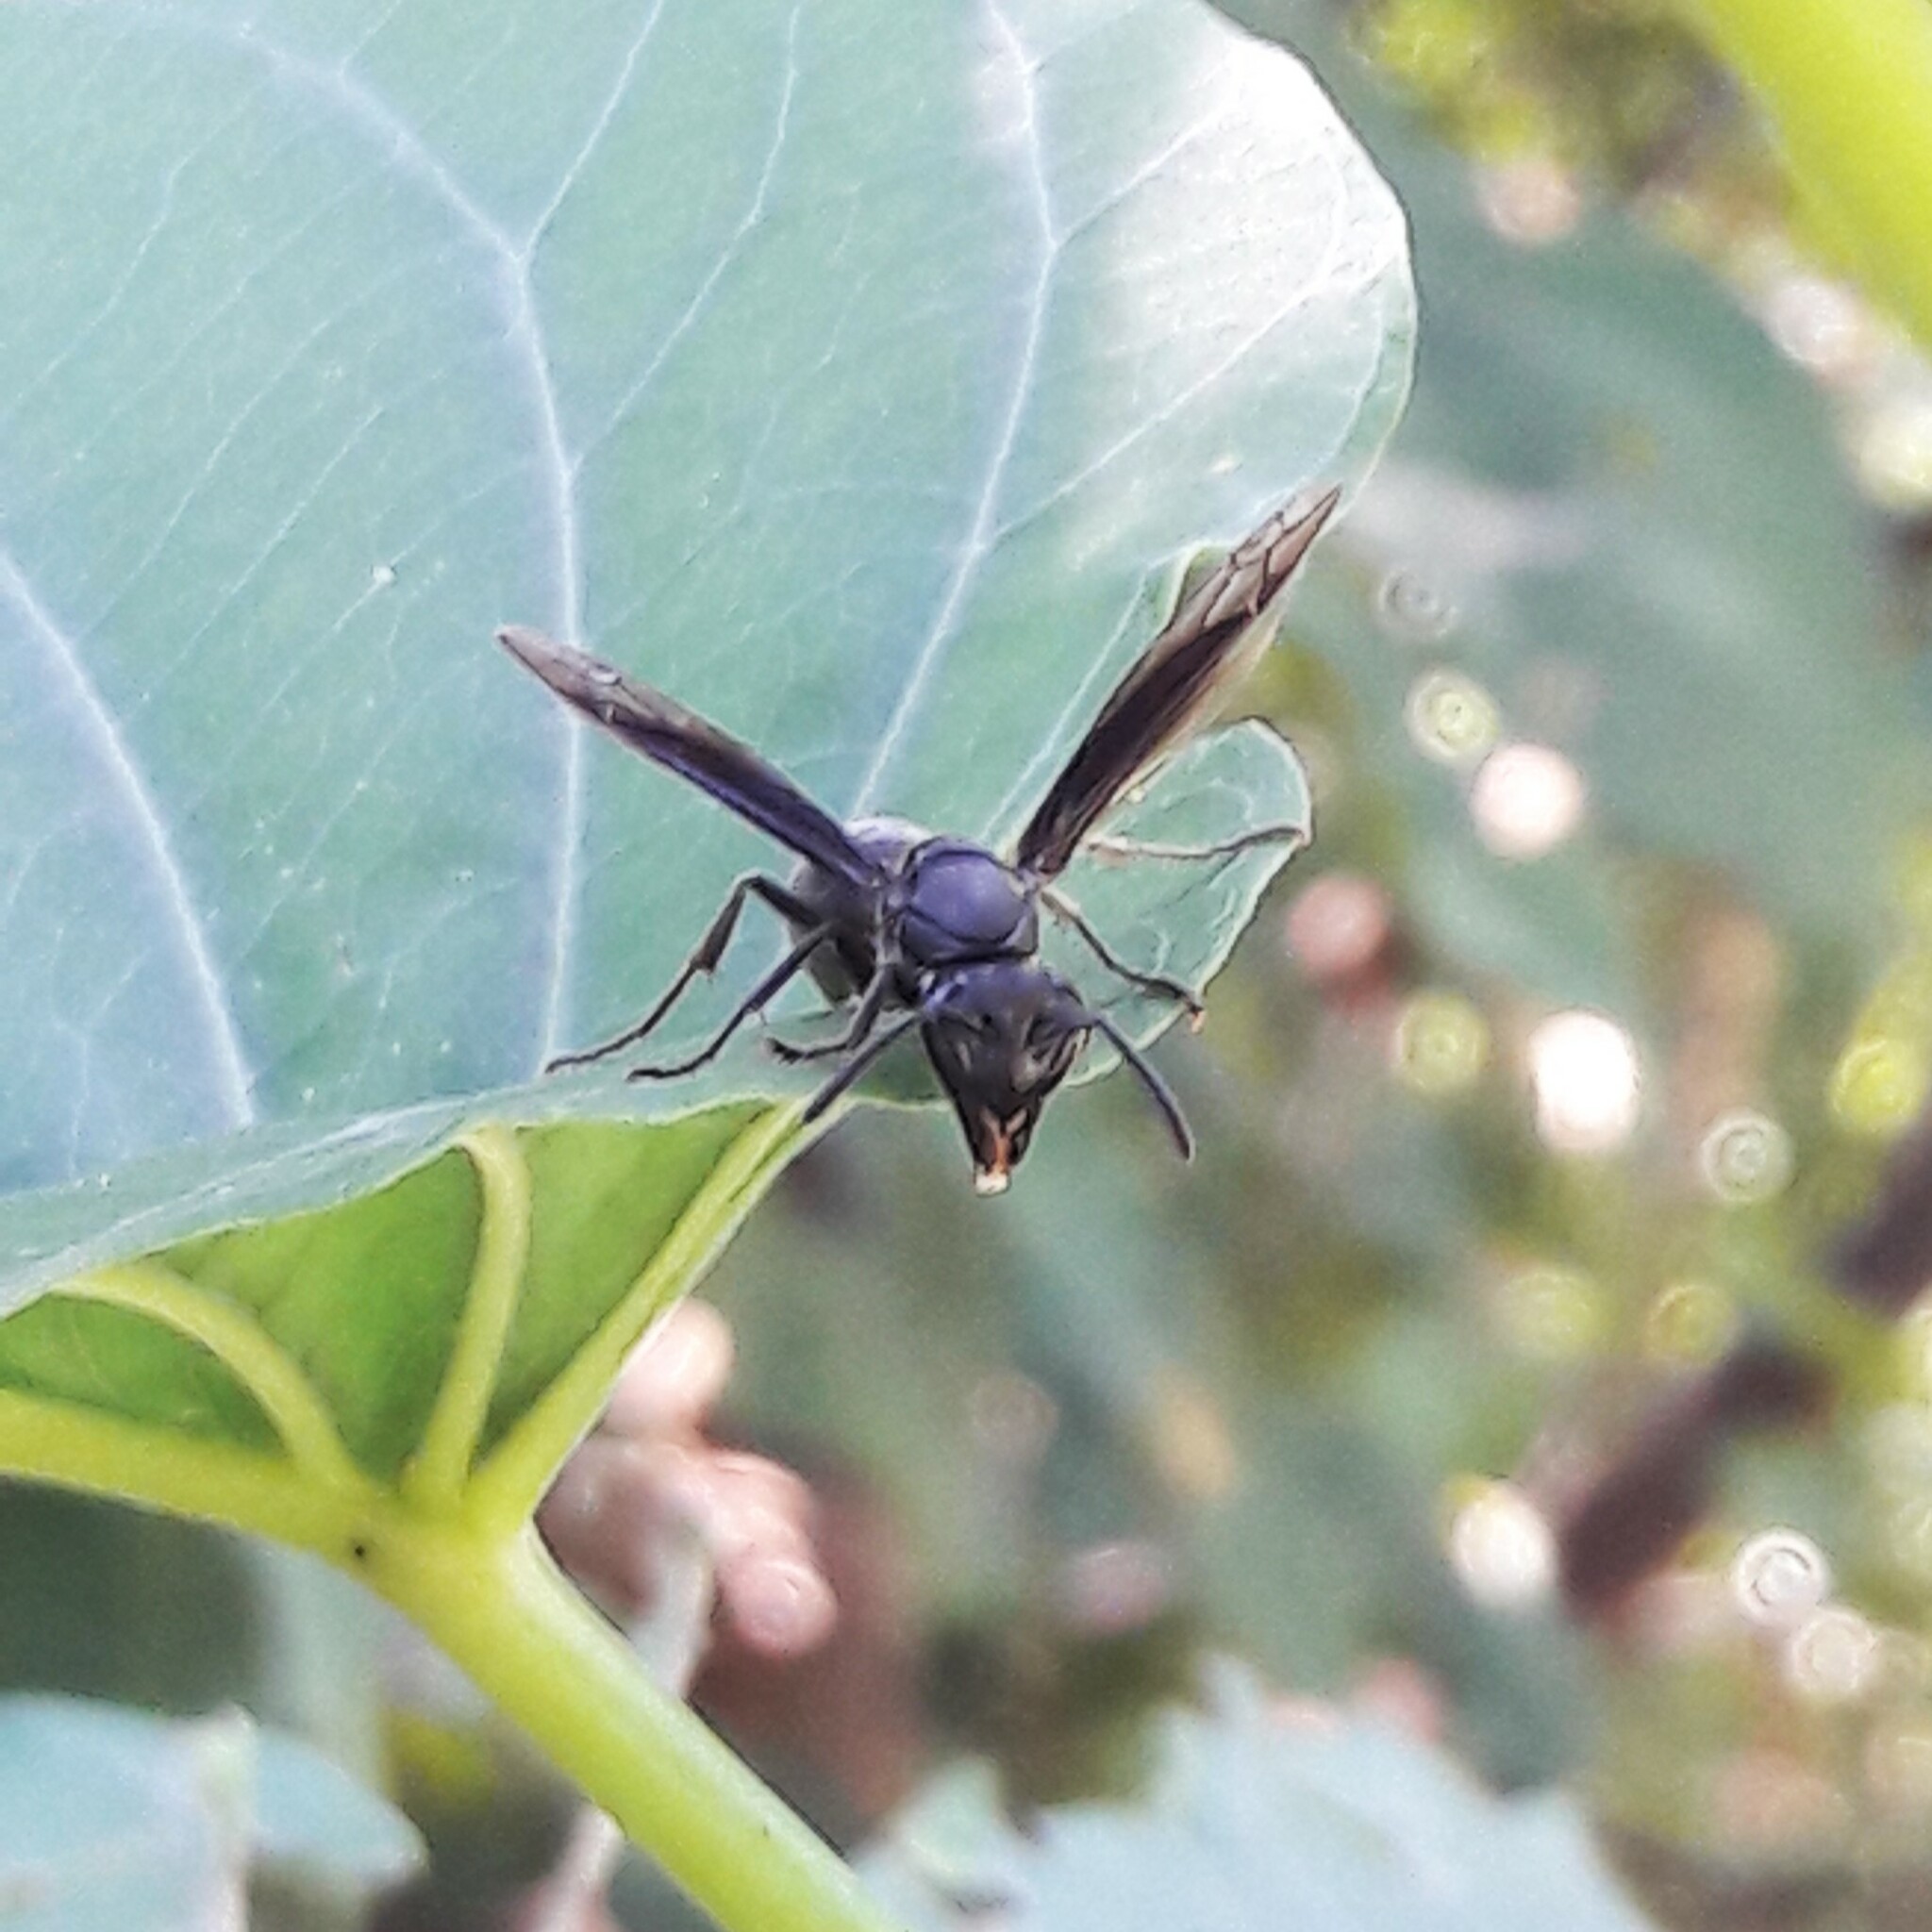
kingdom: Animalia
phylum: Arthropoda
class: Insecta
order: Hymenoptera
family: Eumenidae
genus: Polybia
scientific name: Polybia ignobilis
